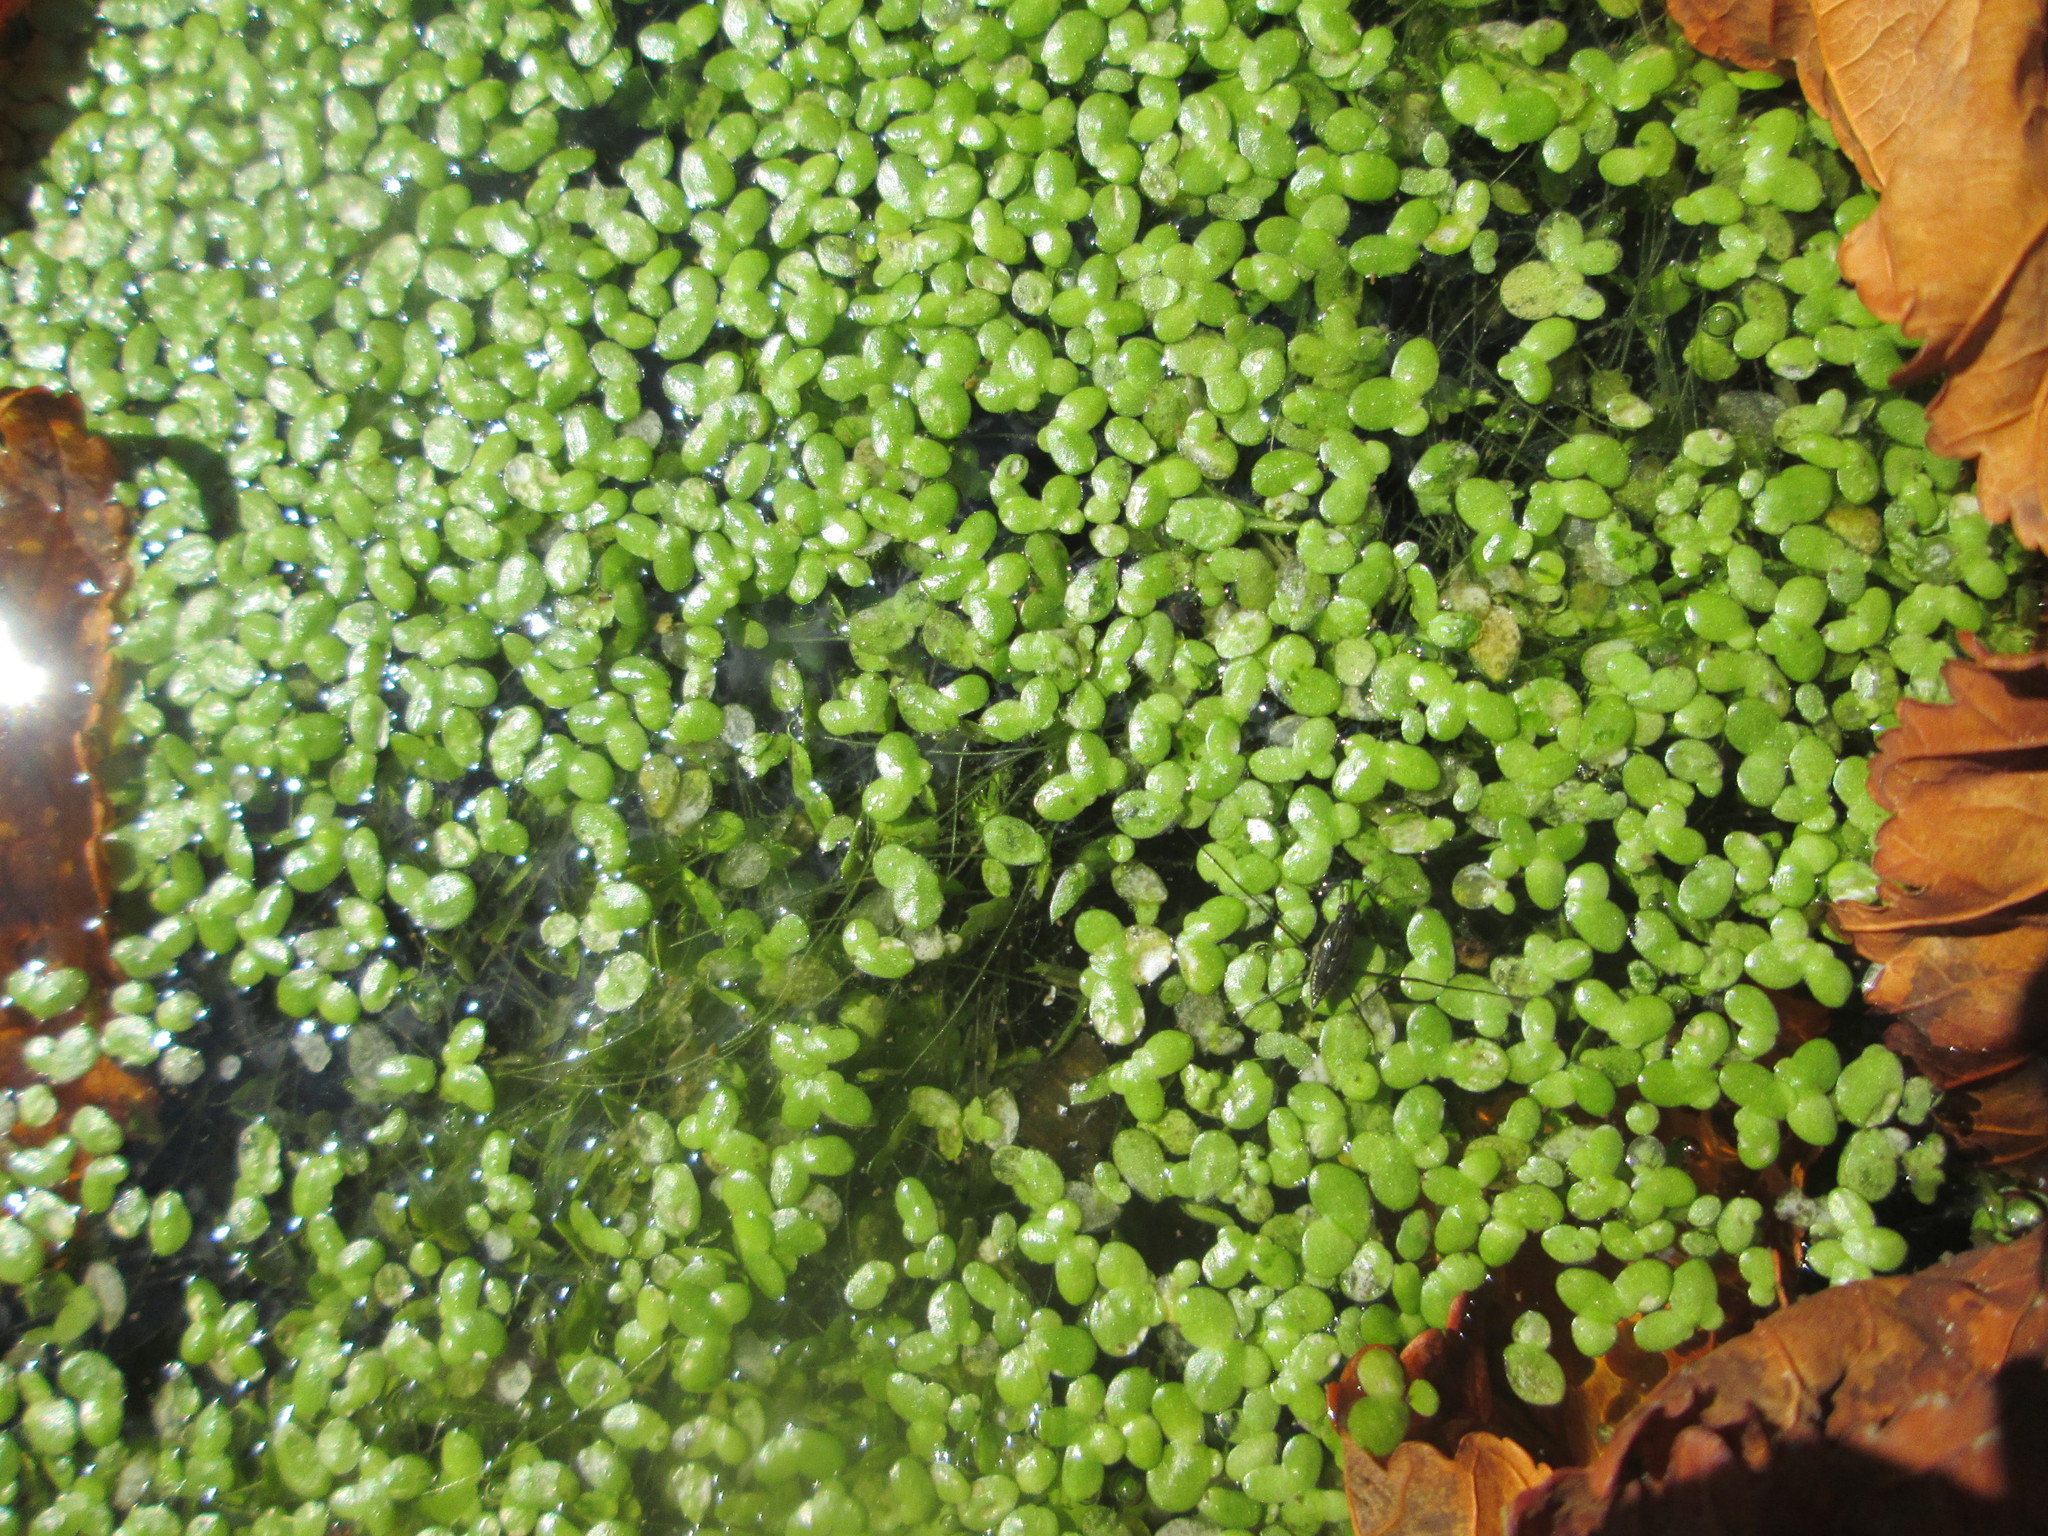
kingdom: Plantae
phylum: Tracheophyta
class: Liliopsida
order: Alismatales
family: Araceae
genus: Lemna
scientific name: Lemna minor
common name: Common duckweed
